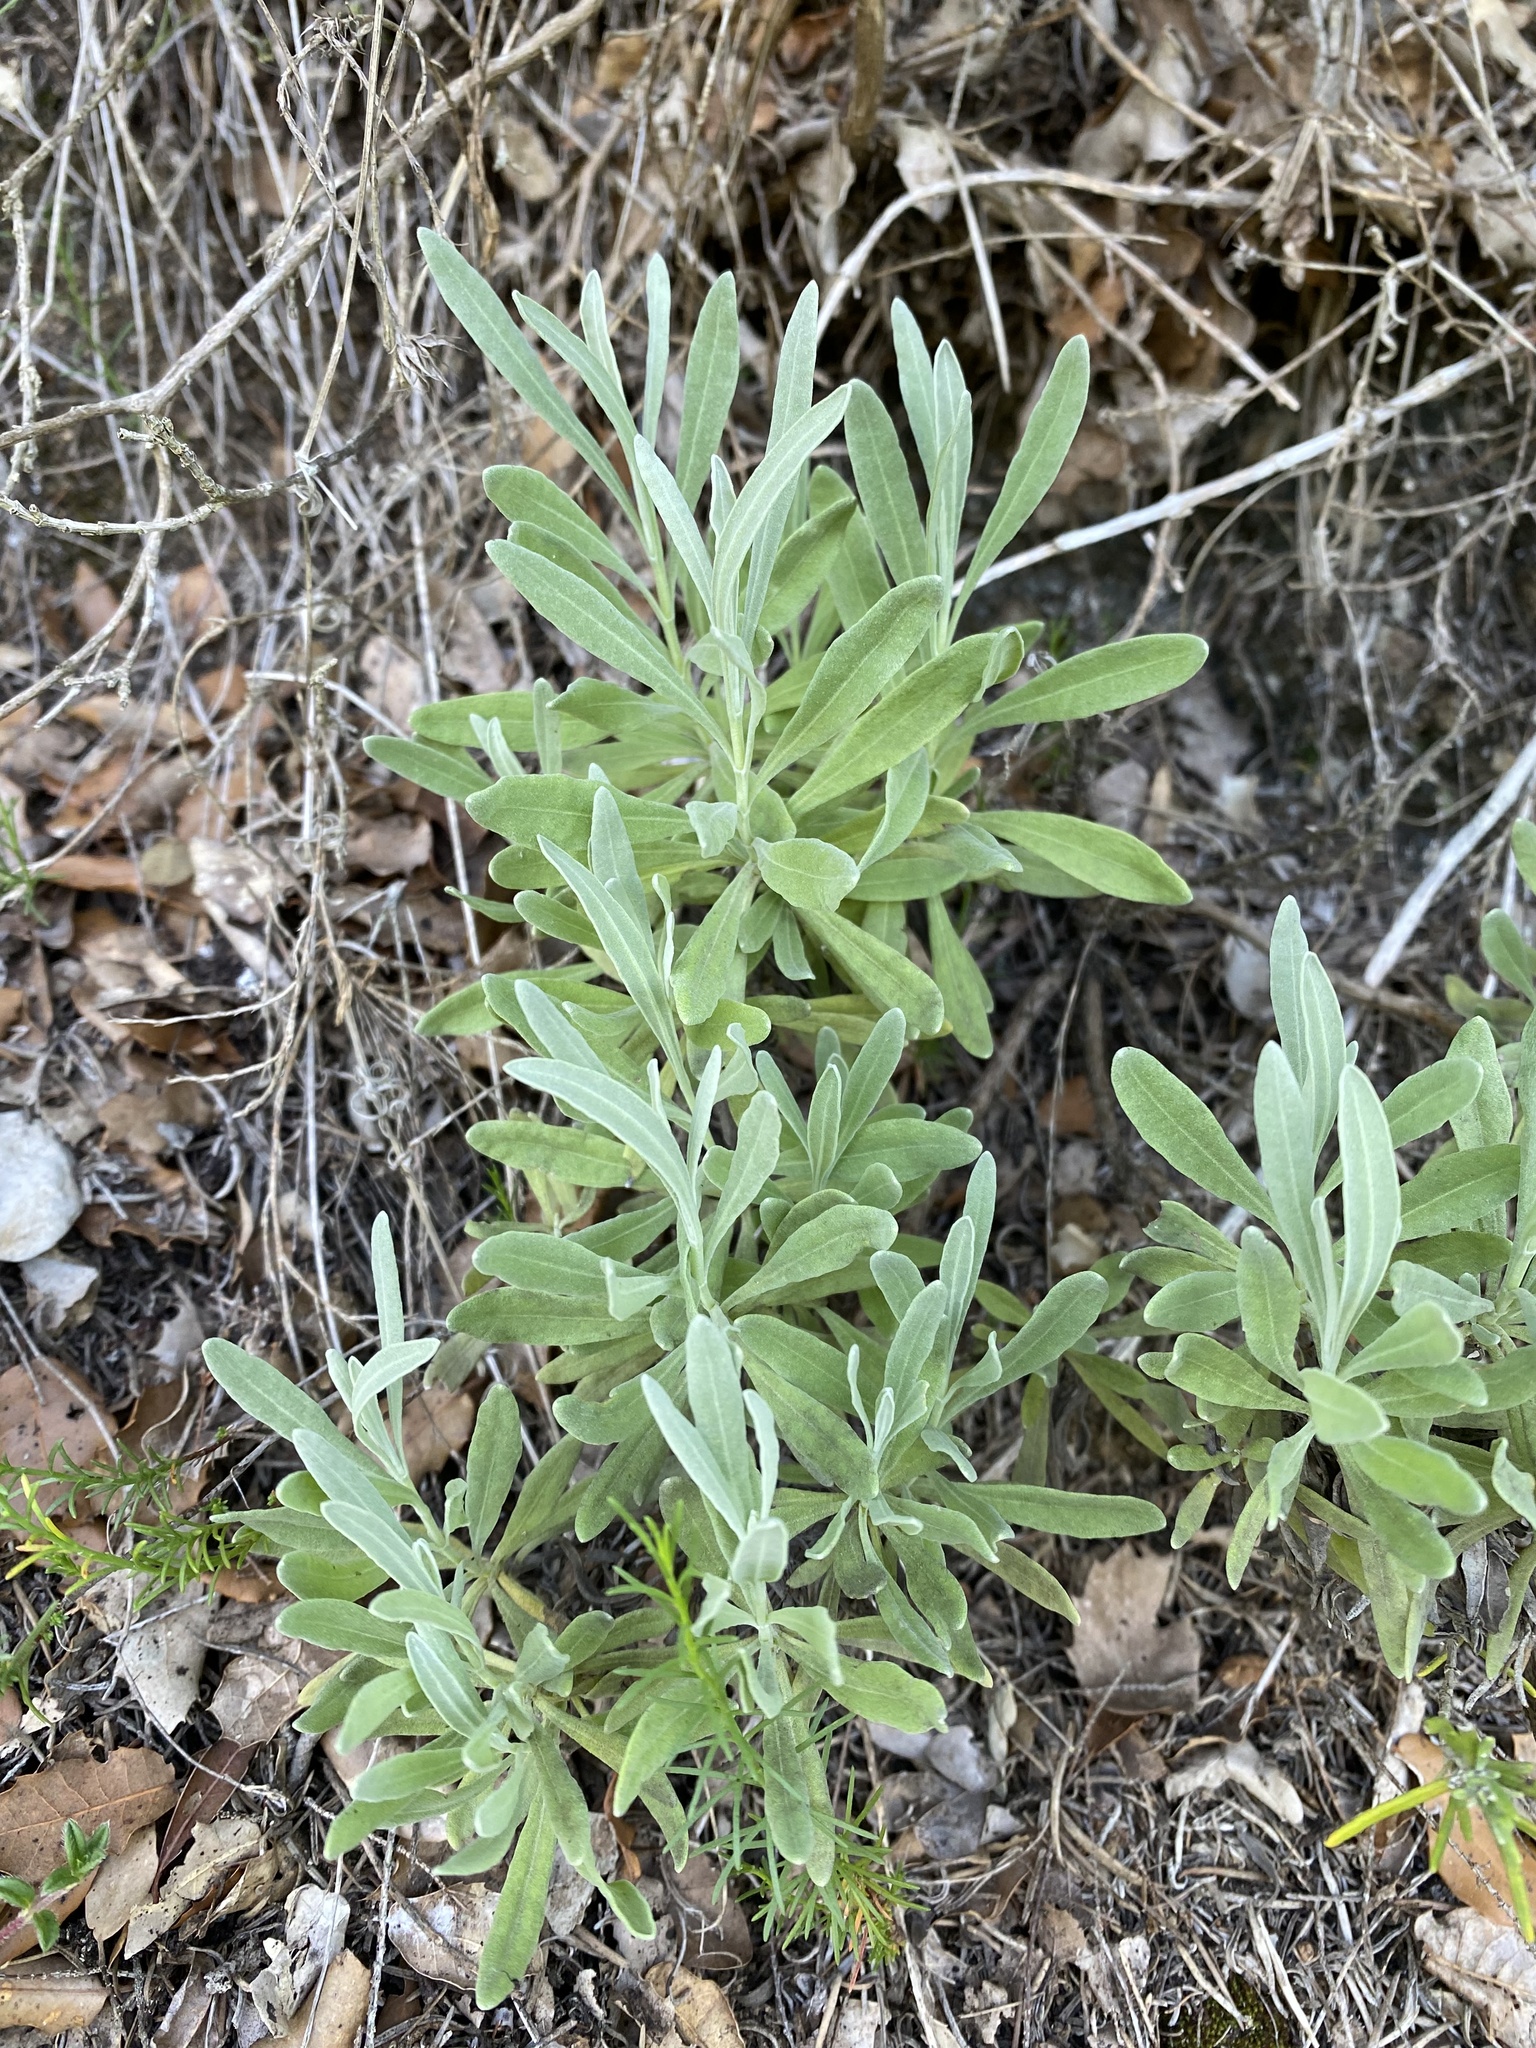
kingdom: Plantae
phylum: Tracheophyta
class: Magnoliopsida
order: Lamiales
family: Lamiaceae
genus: Lavandula
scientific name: Lavandula latifolia
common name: Spike lavendar
